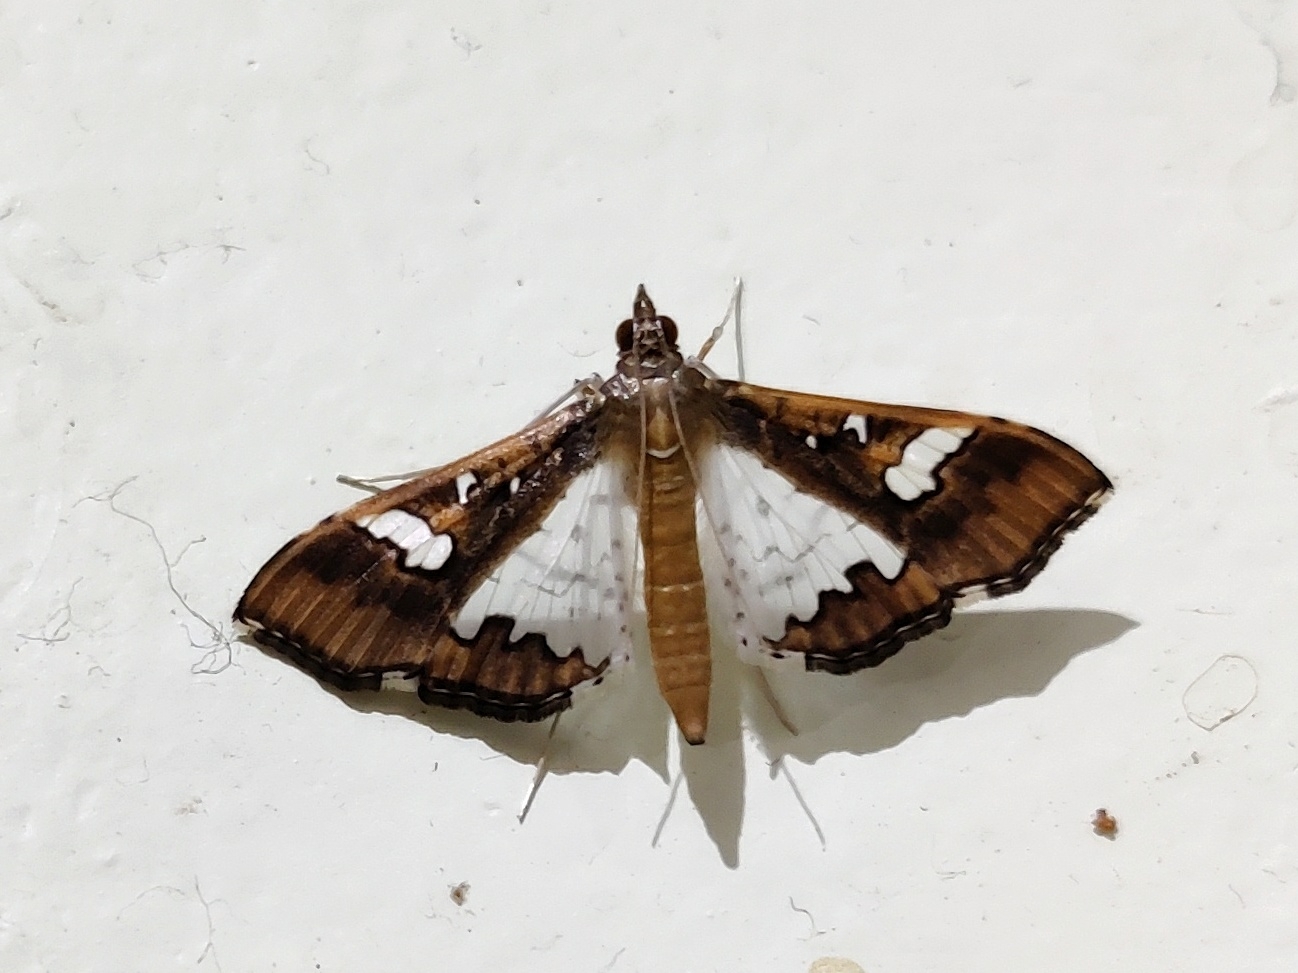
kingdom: Animalia
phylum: Arthropoda
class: Insecta
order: Lepidoptera
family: Crambidae
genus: Maruca
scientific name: Maruca vitrata
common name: Maruca pod borer
